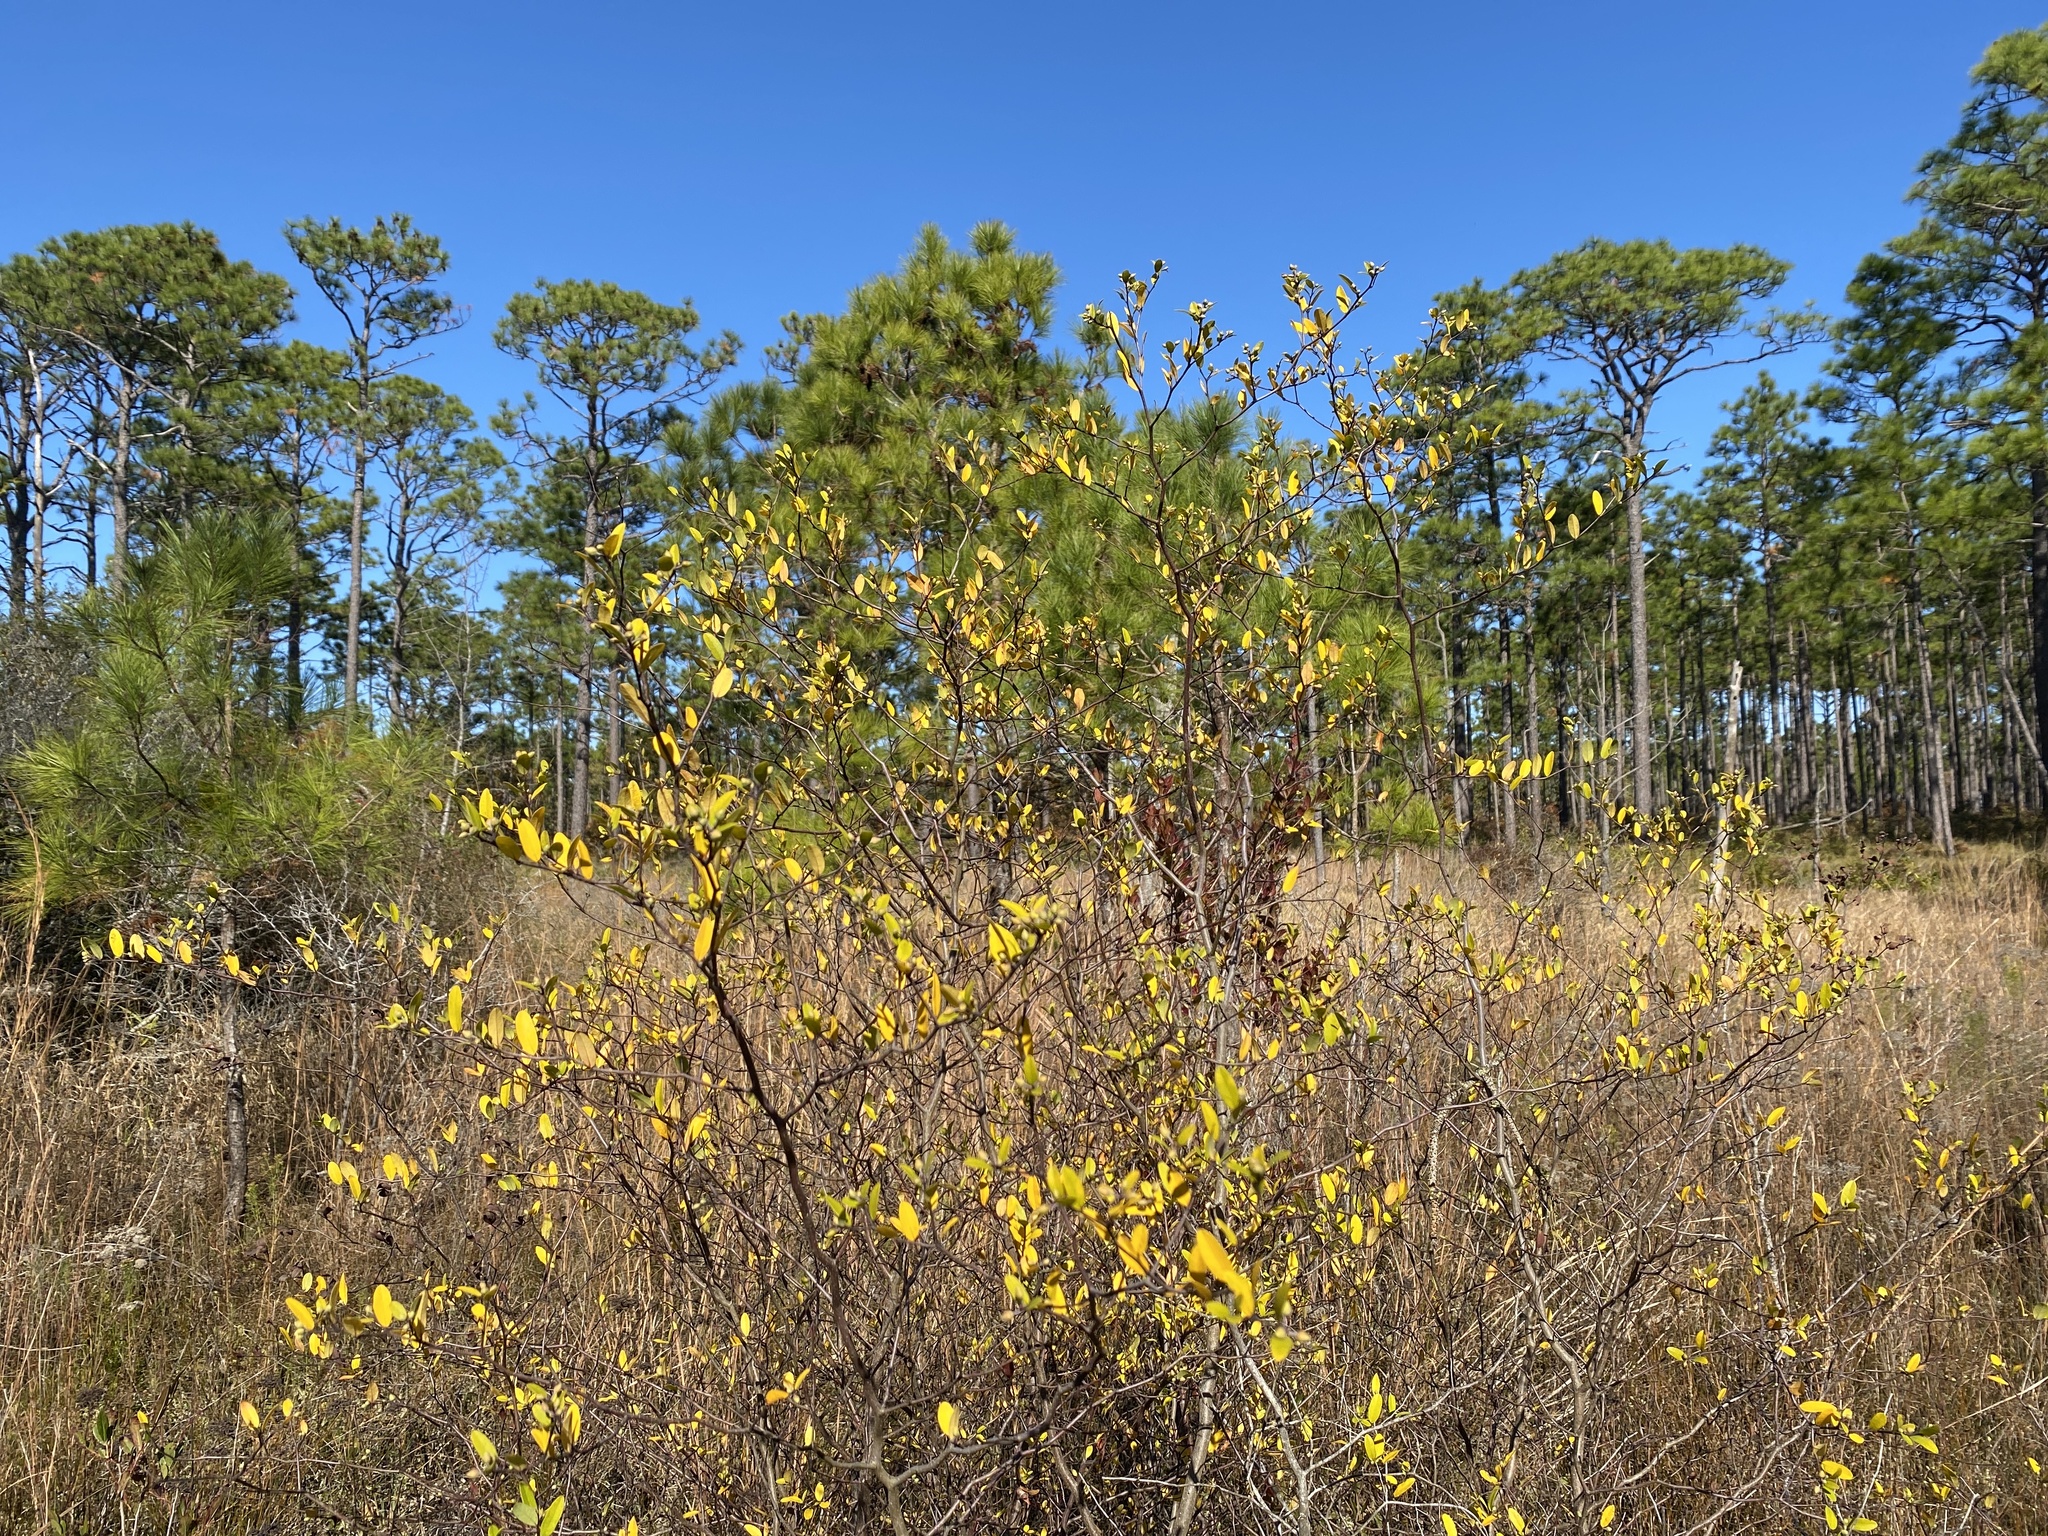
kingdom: Plantae
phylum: Tracheophyta
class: Magnoliopsida
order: Laurales
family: Lauraceae
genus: Litsea
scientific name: Litsea aestivalis
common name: Pondspice
